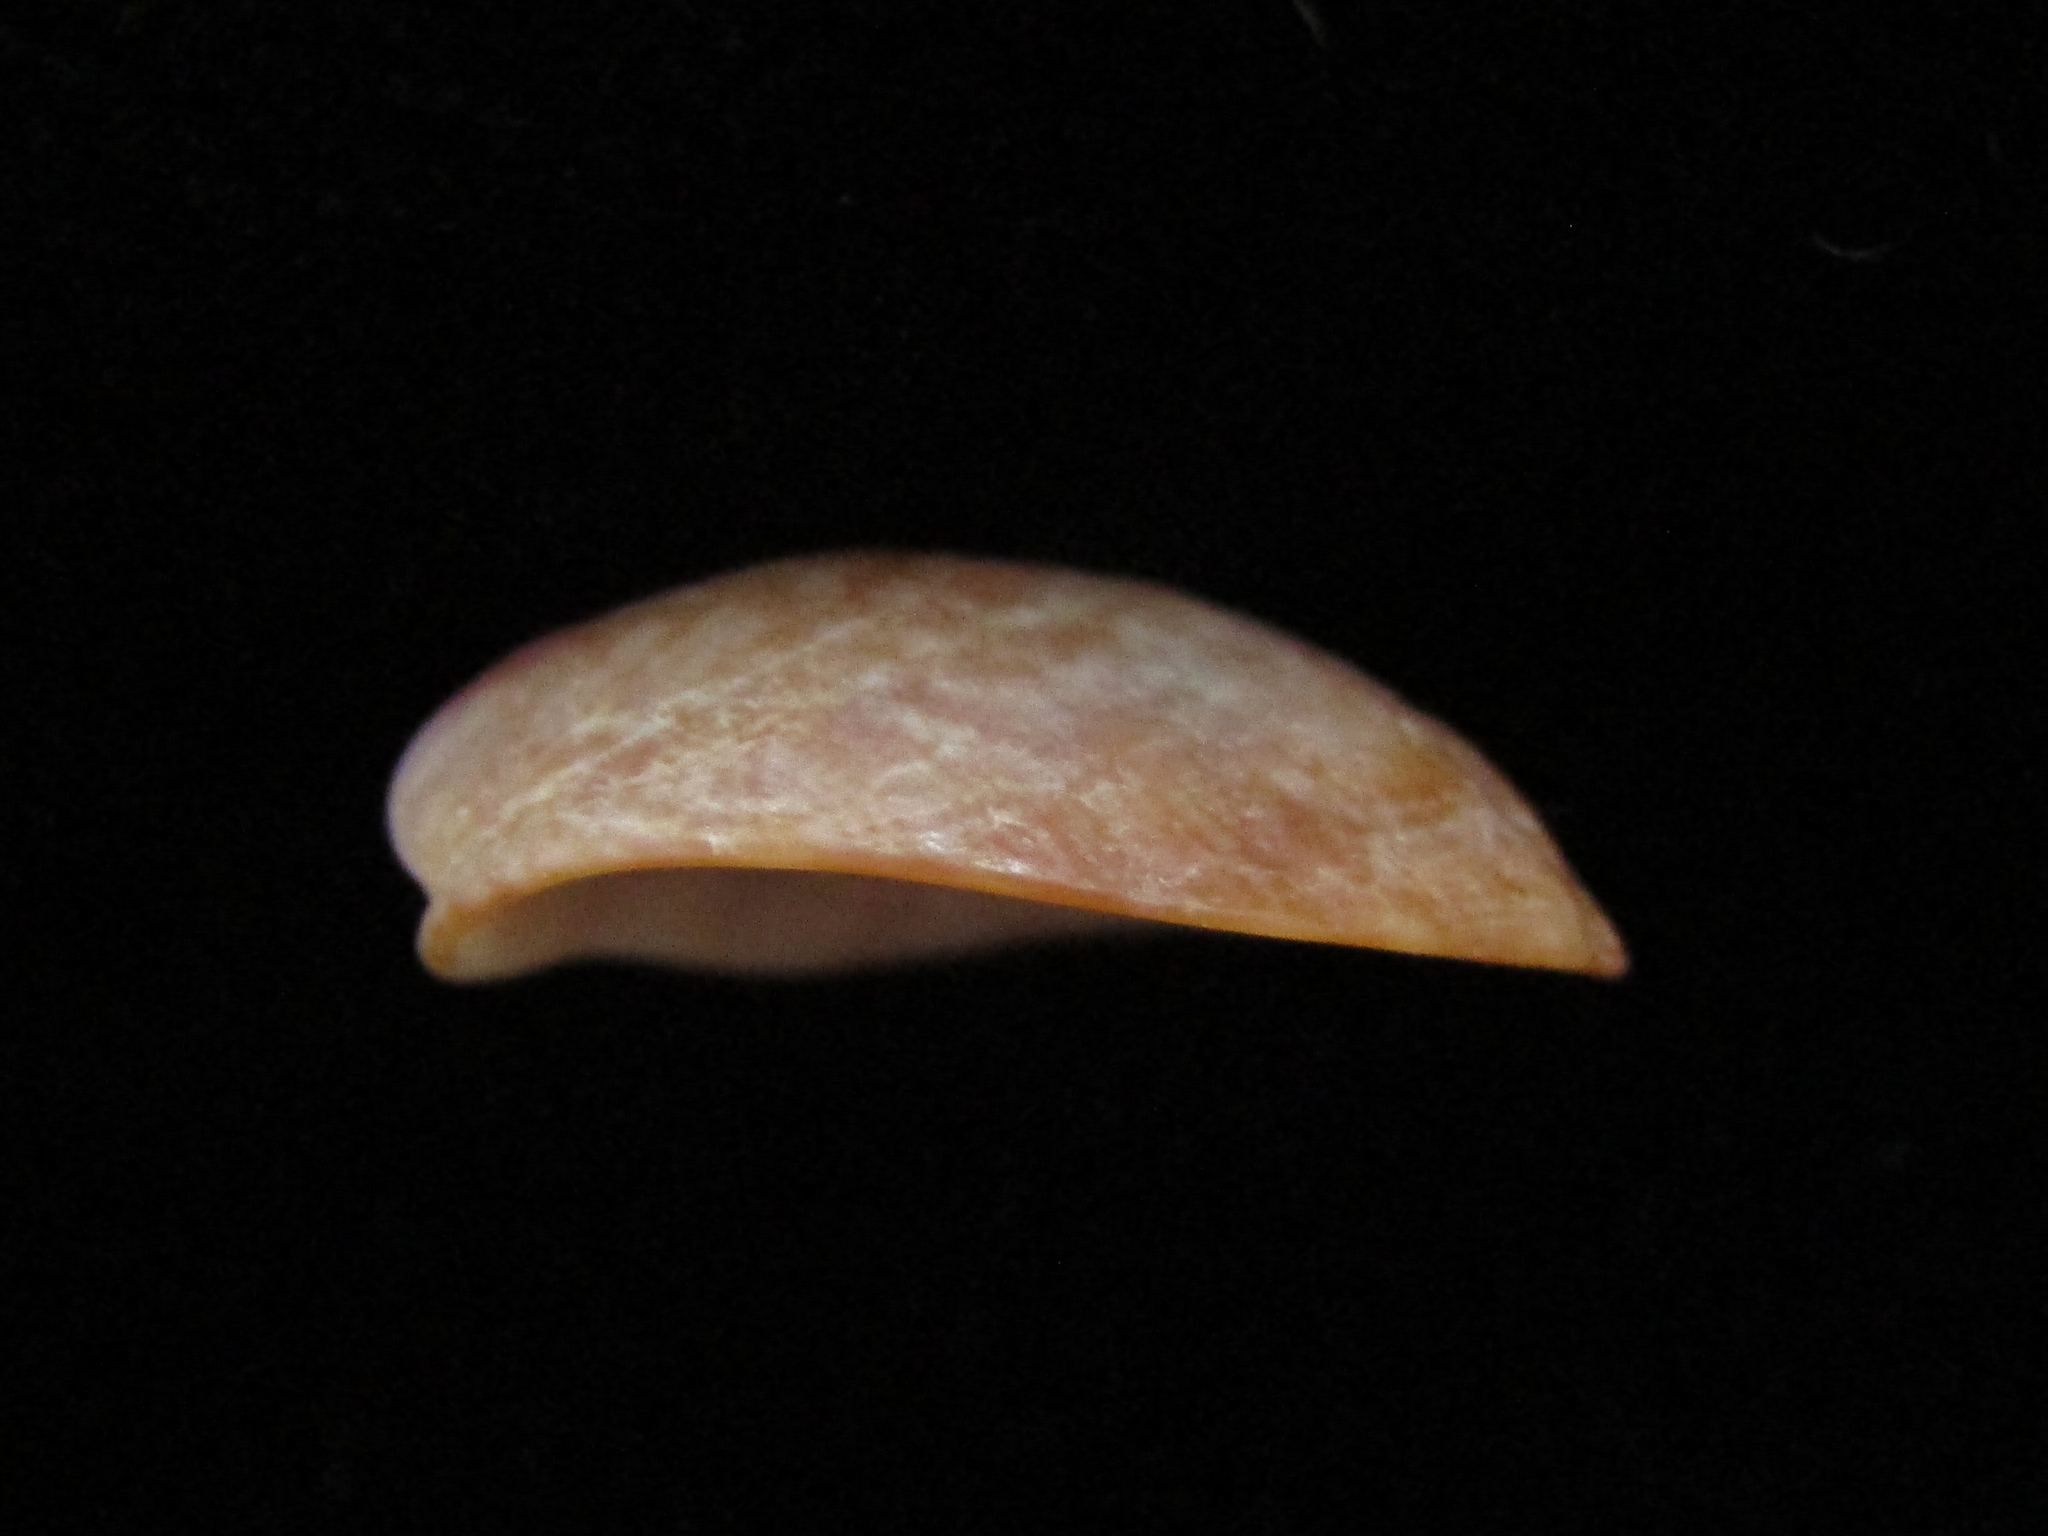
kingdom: Animalia
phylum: Mollusca
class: Gastropoda
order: Littorinimorpha
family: Calyptraeidae
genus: Maoricrypta
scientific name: Maoricrypta youngi
